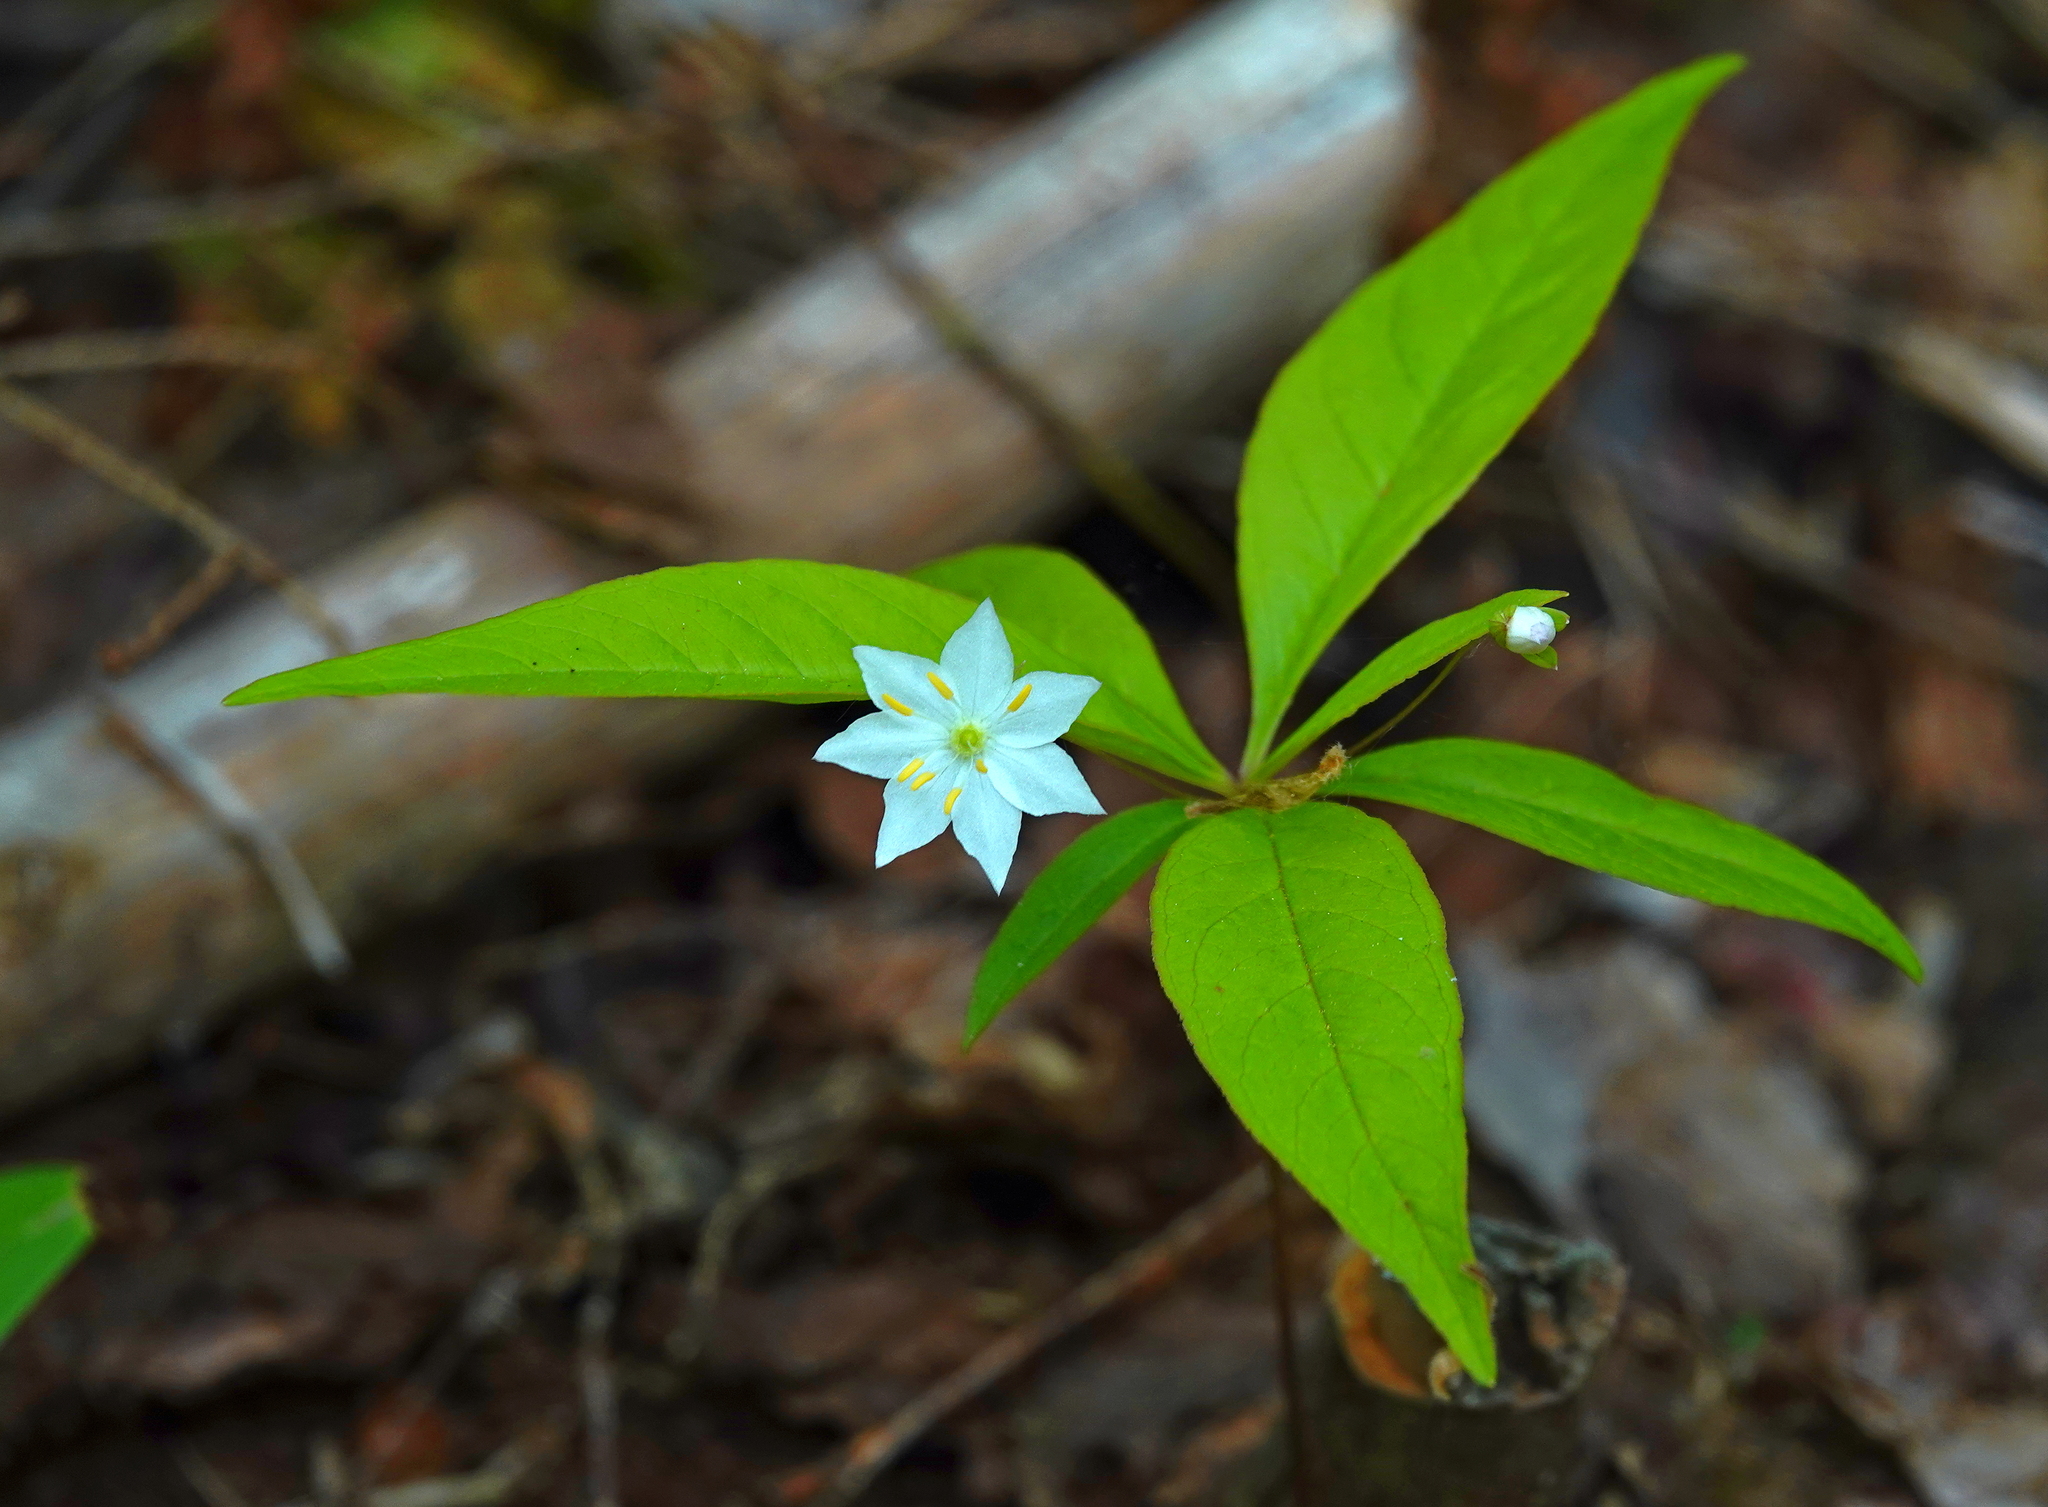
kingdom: Plantae
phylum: Tracheophyta
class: Magnoliopsida
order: Ericales
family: Primulaceae
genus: Lysimachia
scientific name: Lysimachia borealis
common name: American starflower
